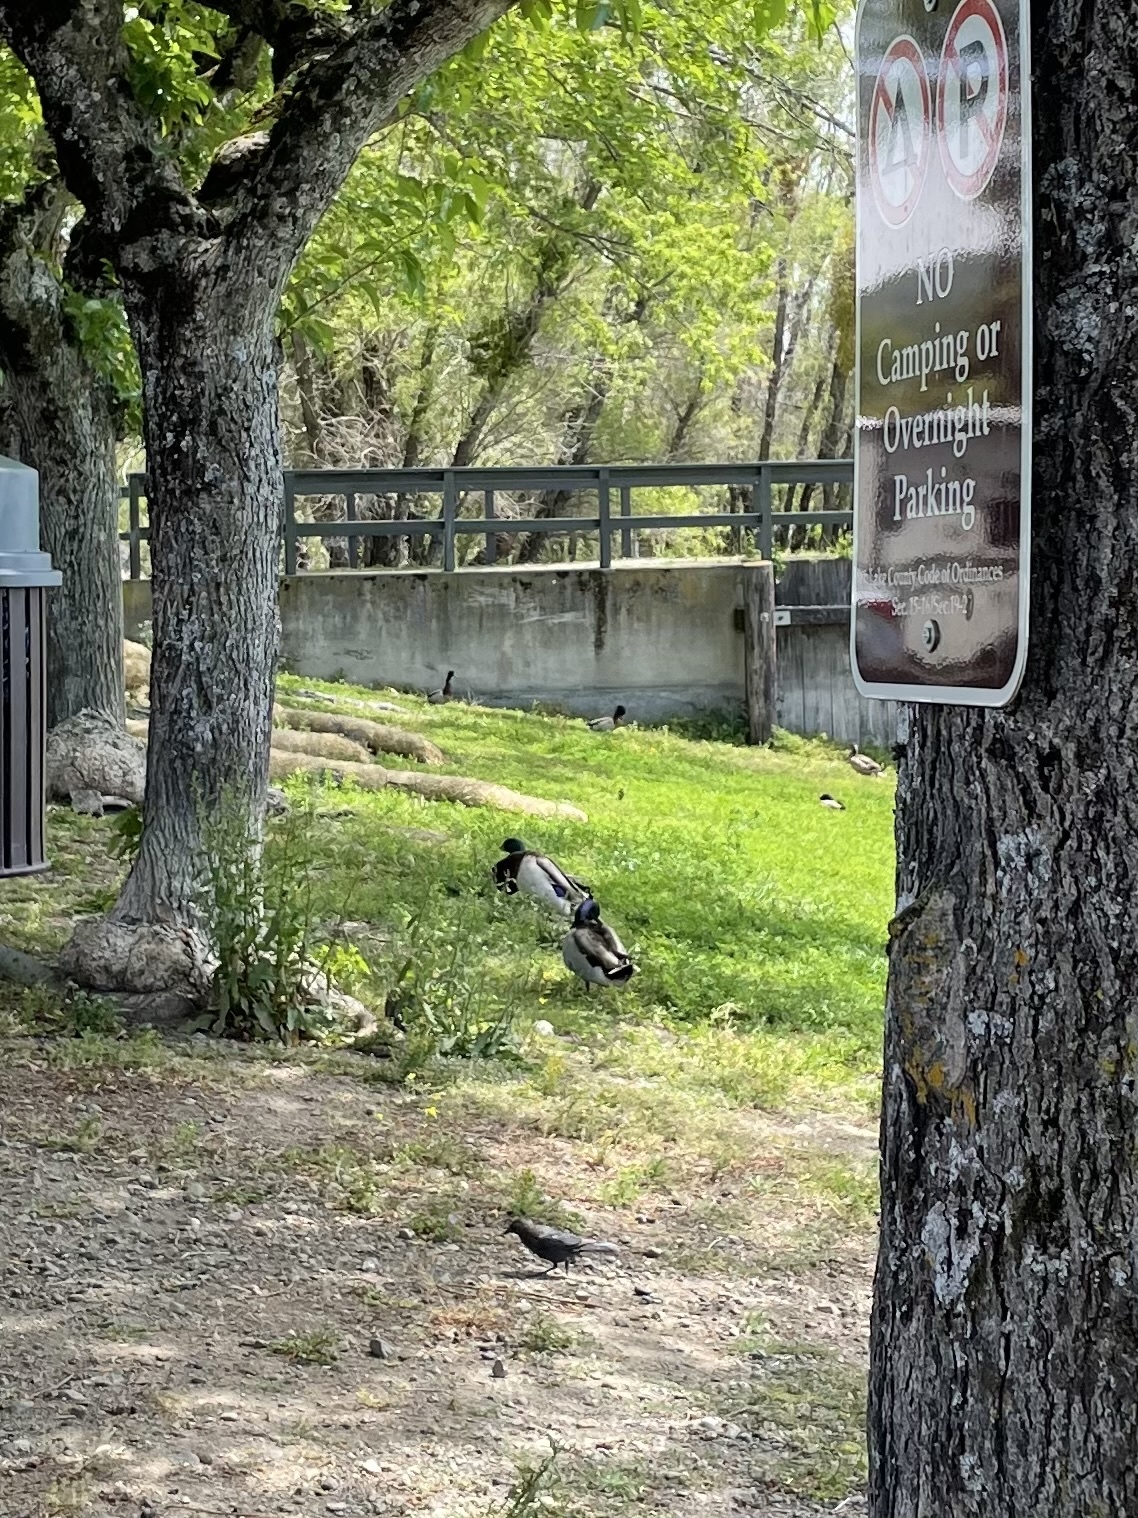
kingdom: Animalia
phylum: Chordata
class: Aves
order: Anseriformes
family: Anatidae
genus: Anas
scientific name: Anas platyrhynchos
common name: Mallard
